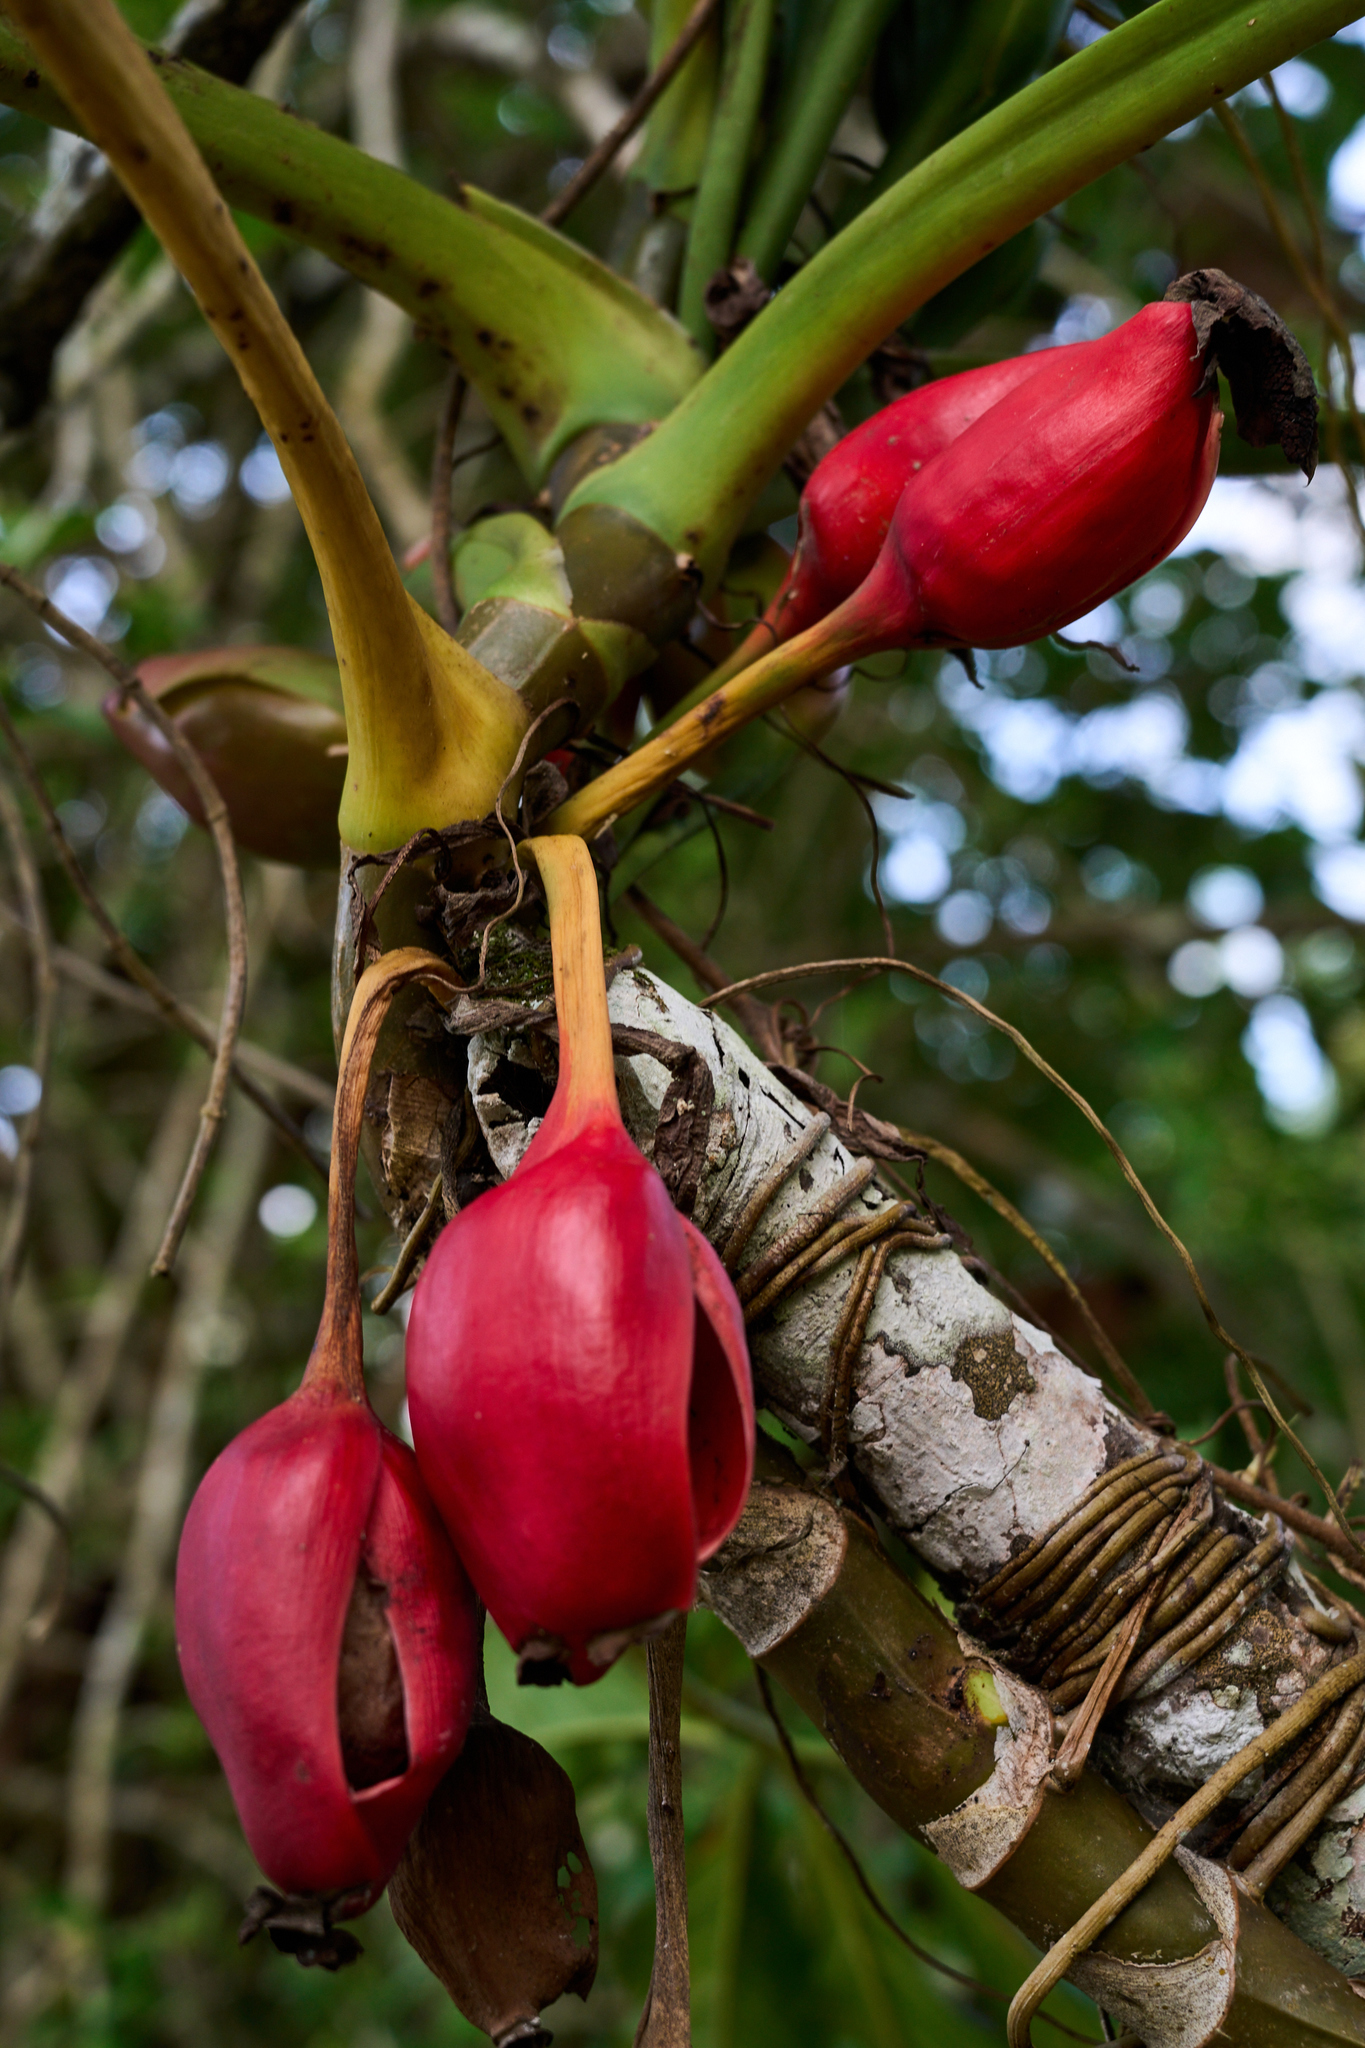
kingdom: Plantae
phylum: Tracheophyta
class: Liliopsida
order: Alismatales
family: Araceae
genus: Syngonium
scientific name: Syngonium angustatum
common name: Fivefingers
